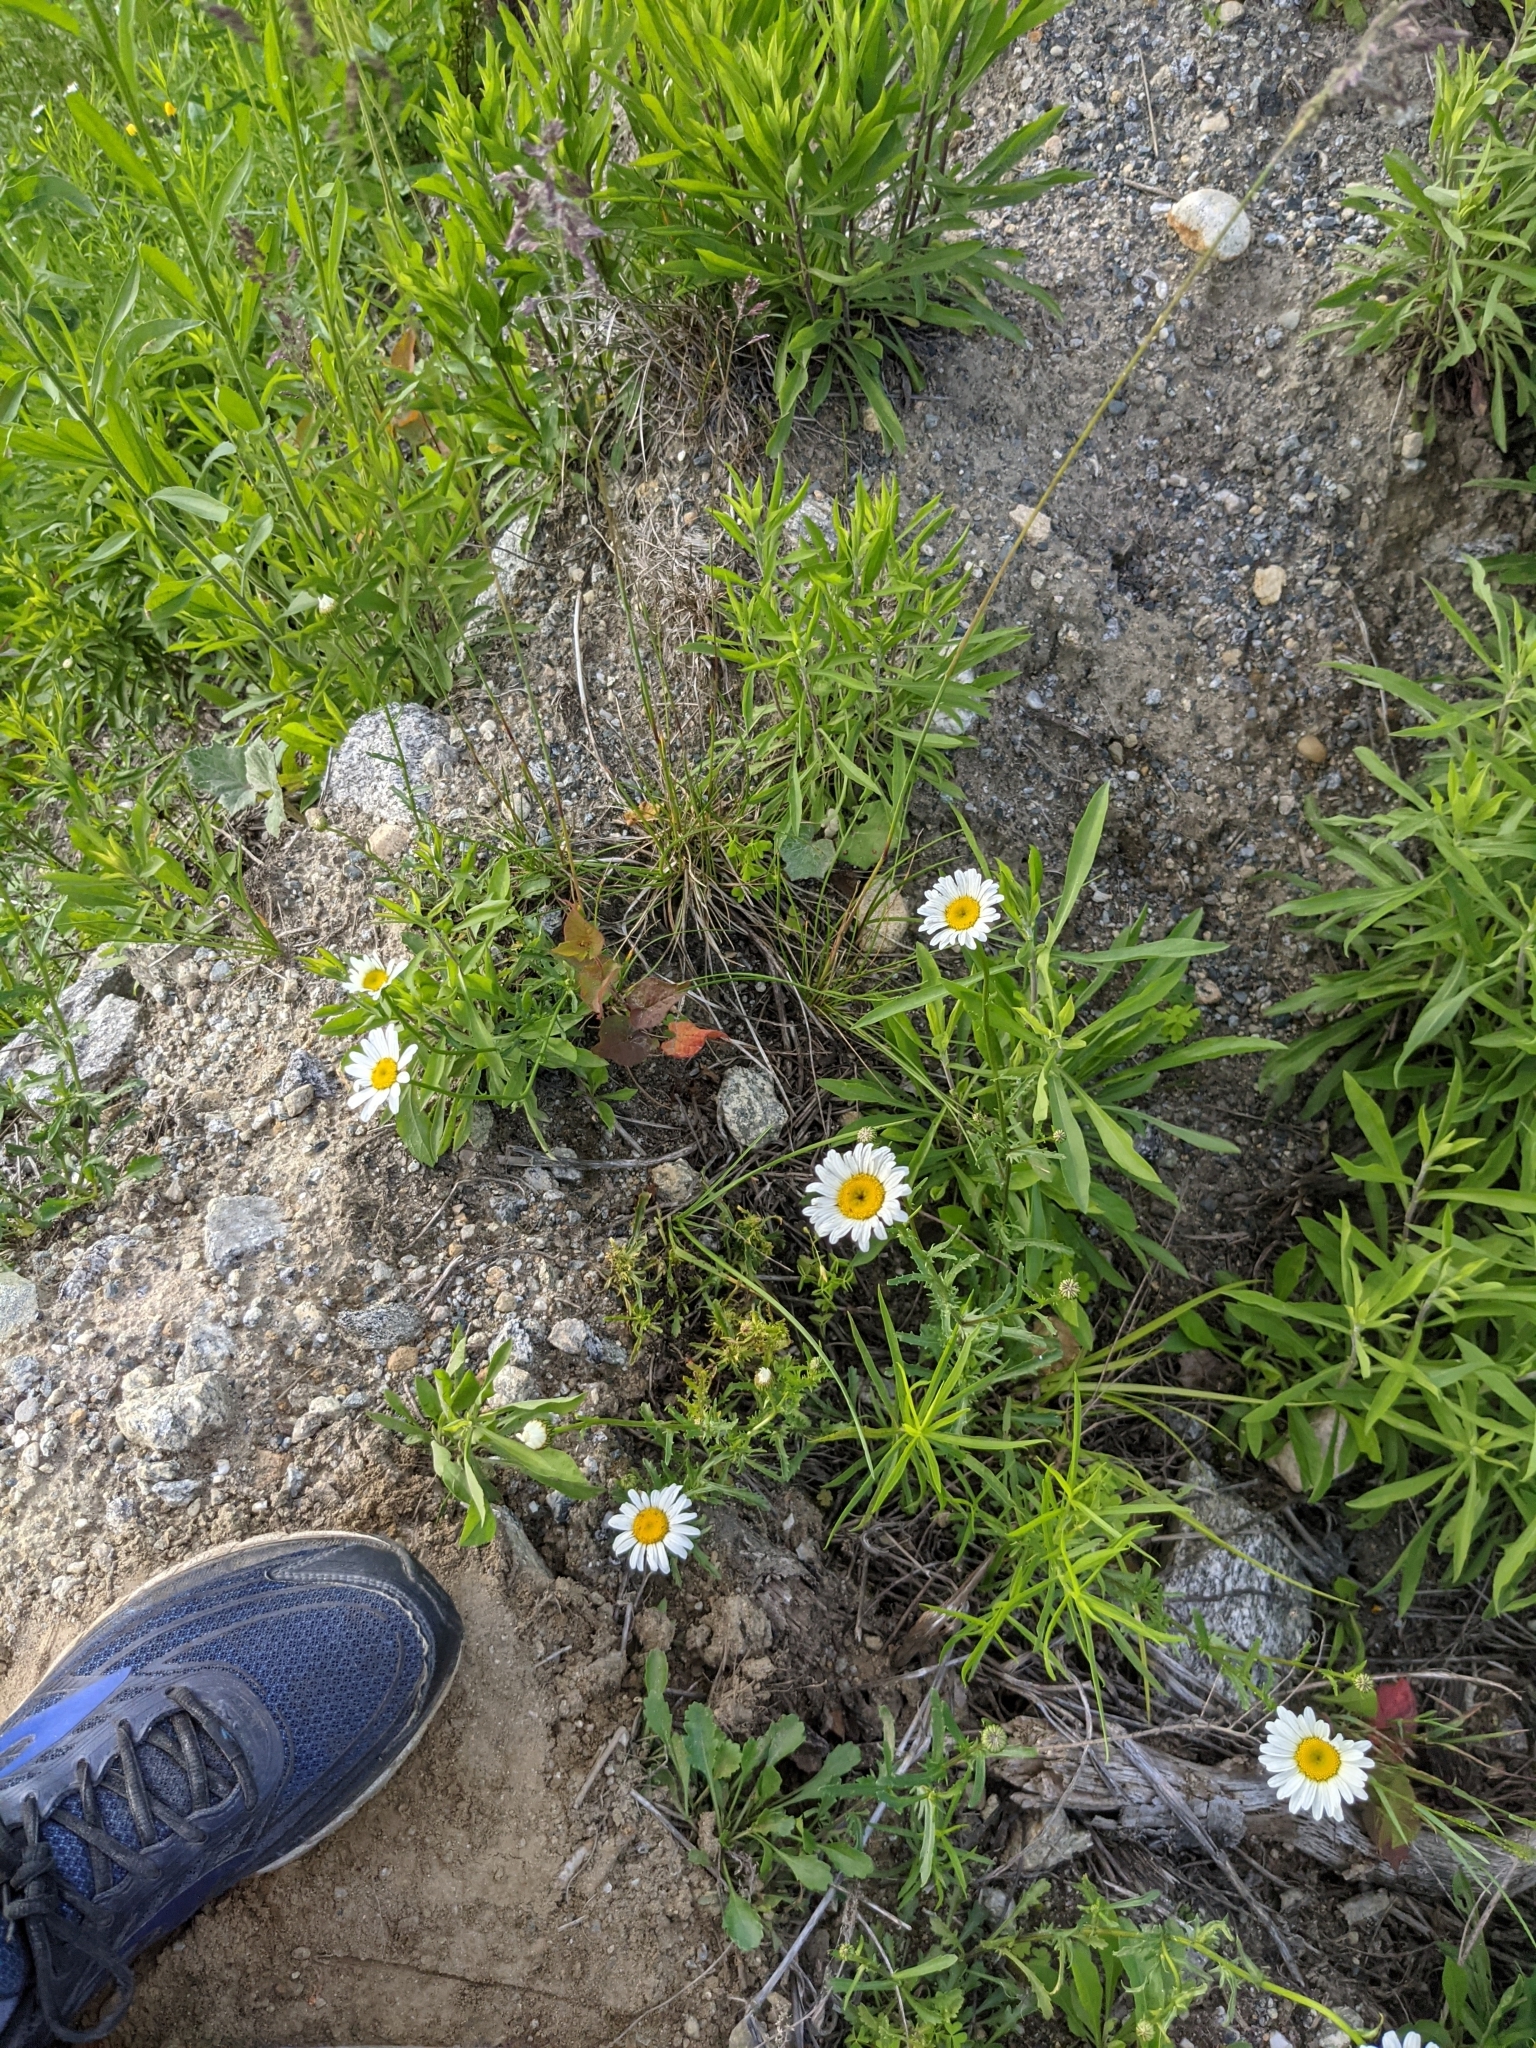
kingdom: Plantae
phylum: Tracheophyta
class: Magnoliopsida
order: Asterales
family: Asteraceae
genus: Leucanthemum
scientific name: Leucanthemum vulgare
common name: Oxeye daisy
